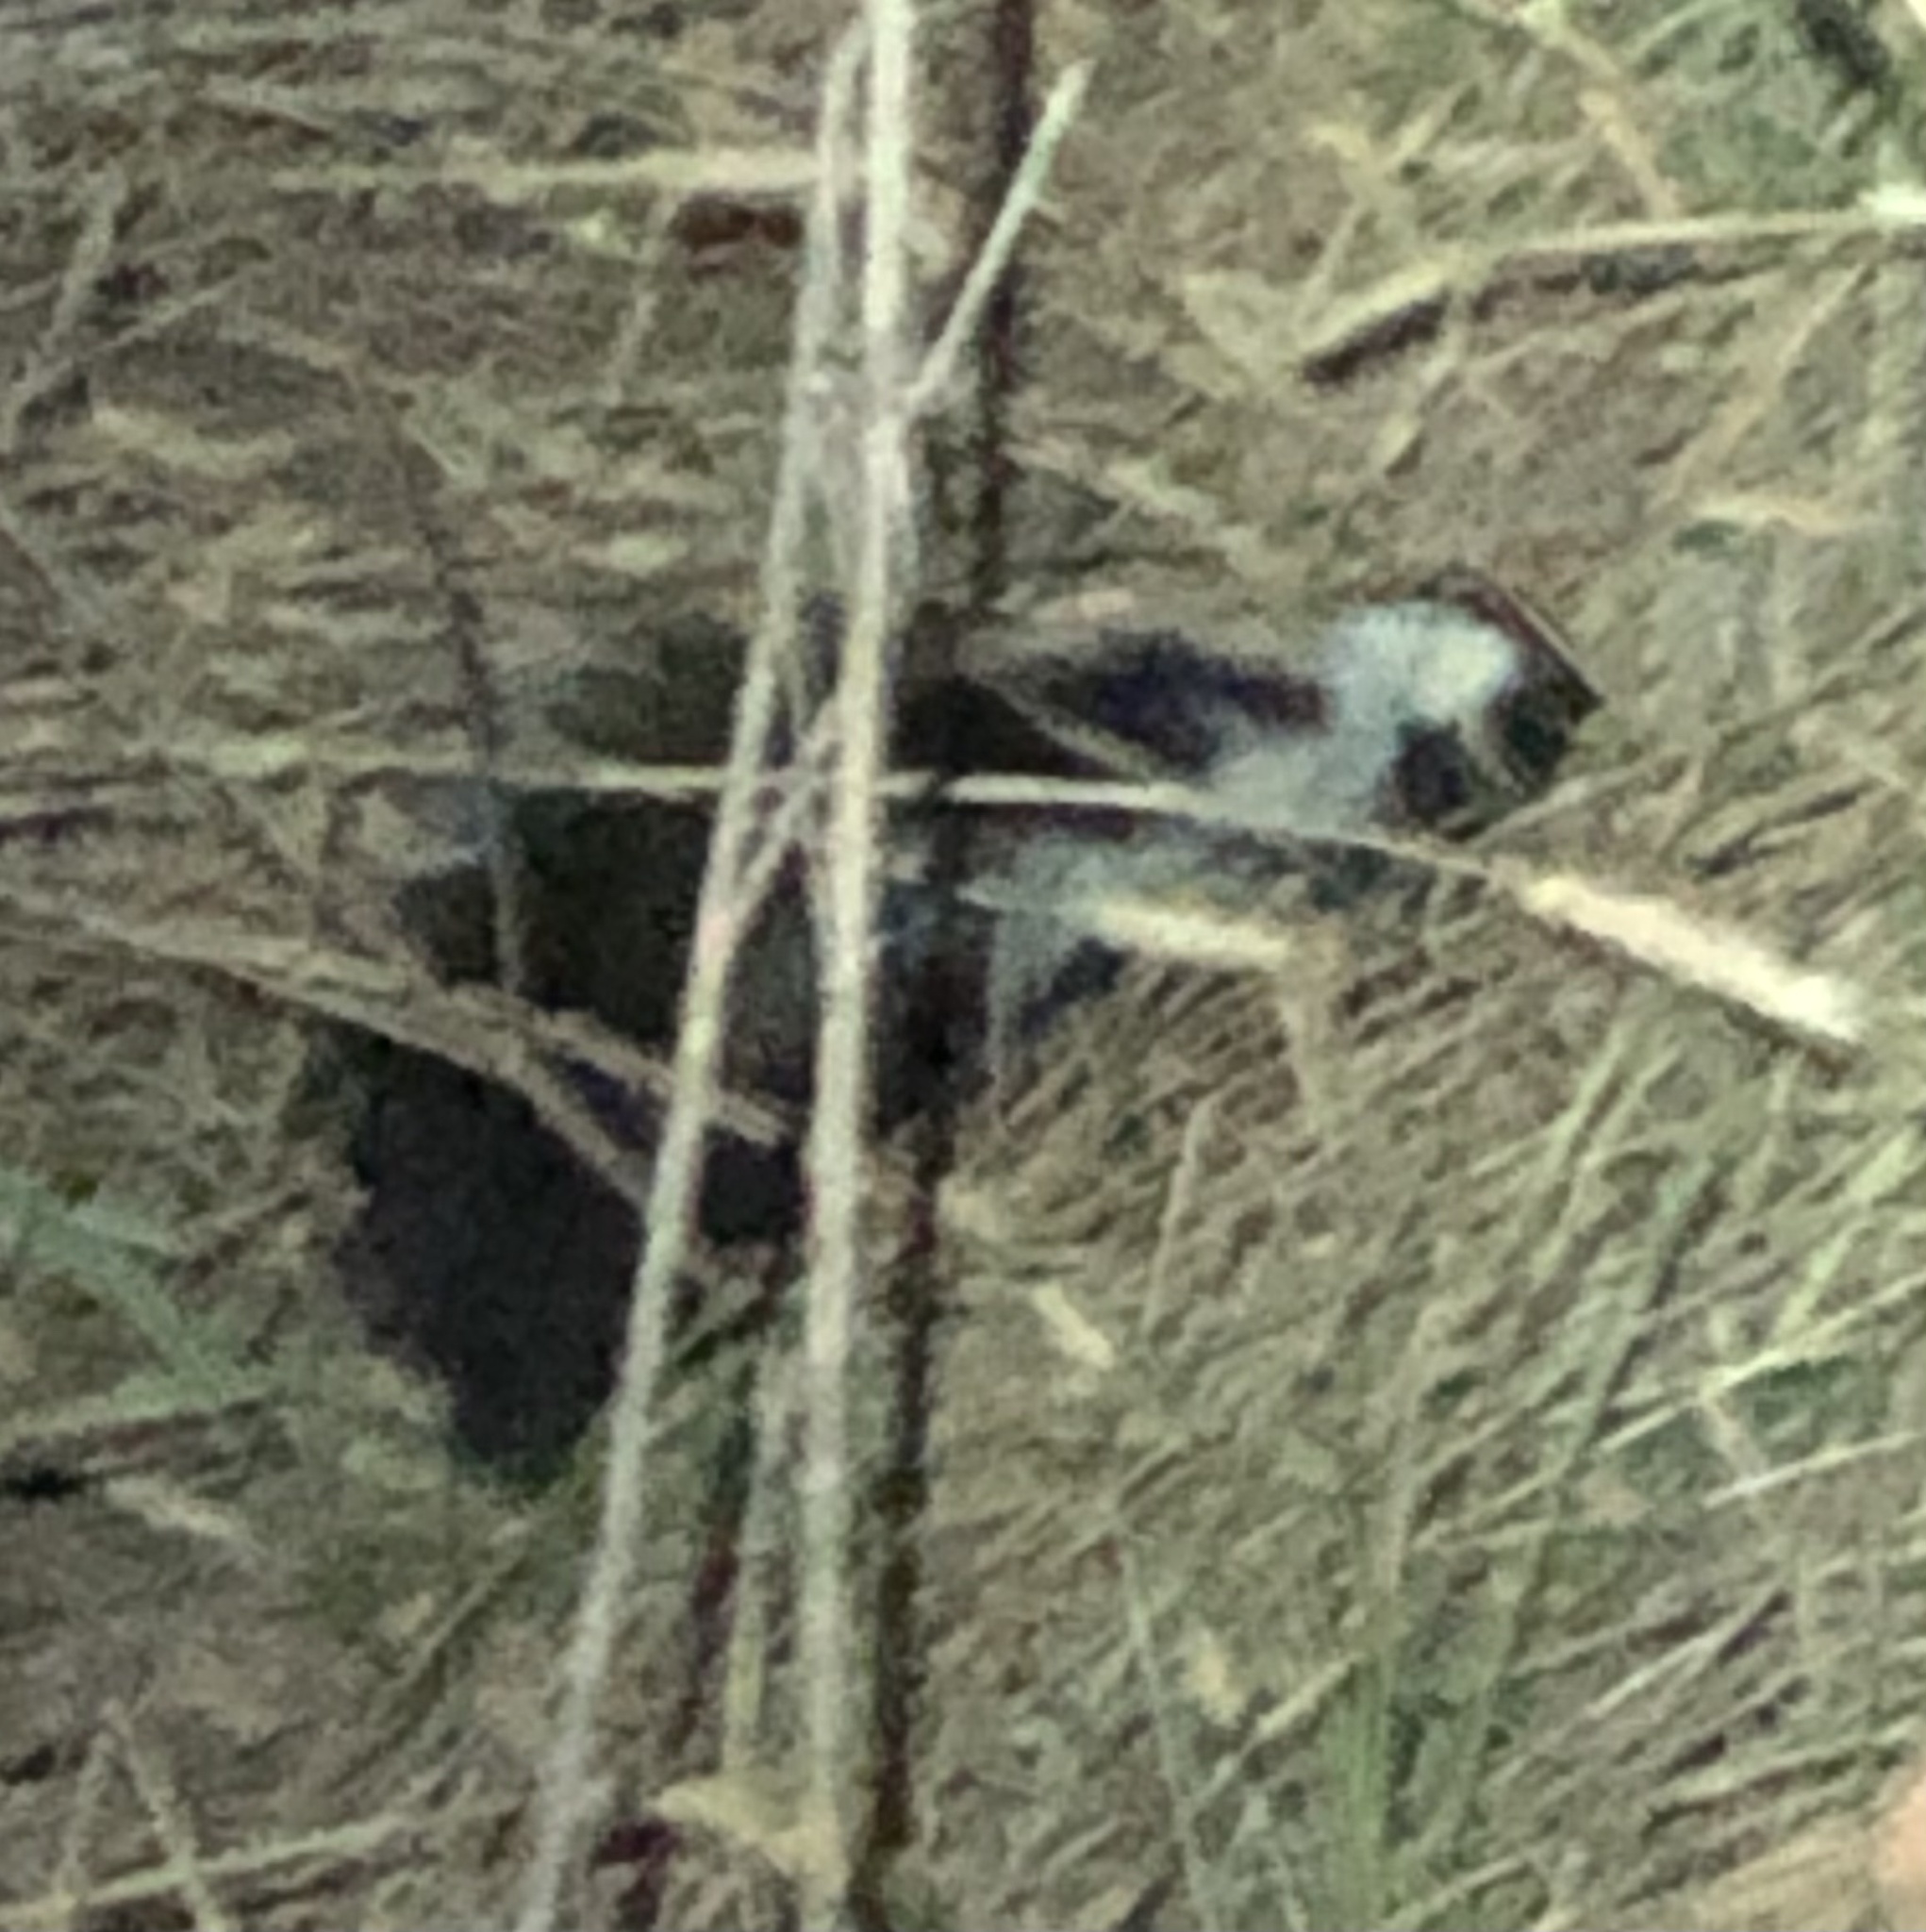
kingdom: Animalia
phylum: Chordata
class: Mammalia
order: Carnivora
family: Mephitidae
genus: Mephitis
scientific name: Mephitis mephitis
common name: Striped skunk
